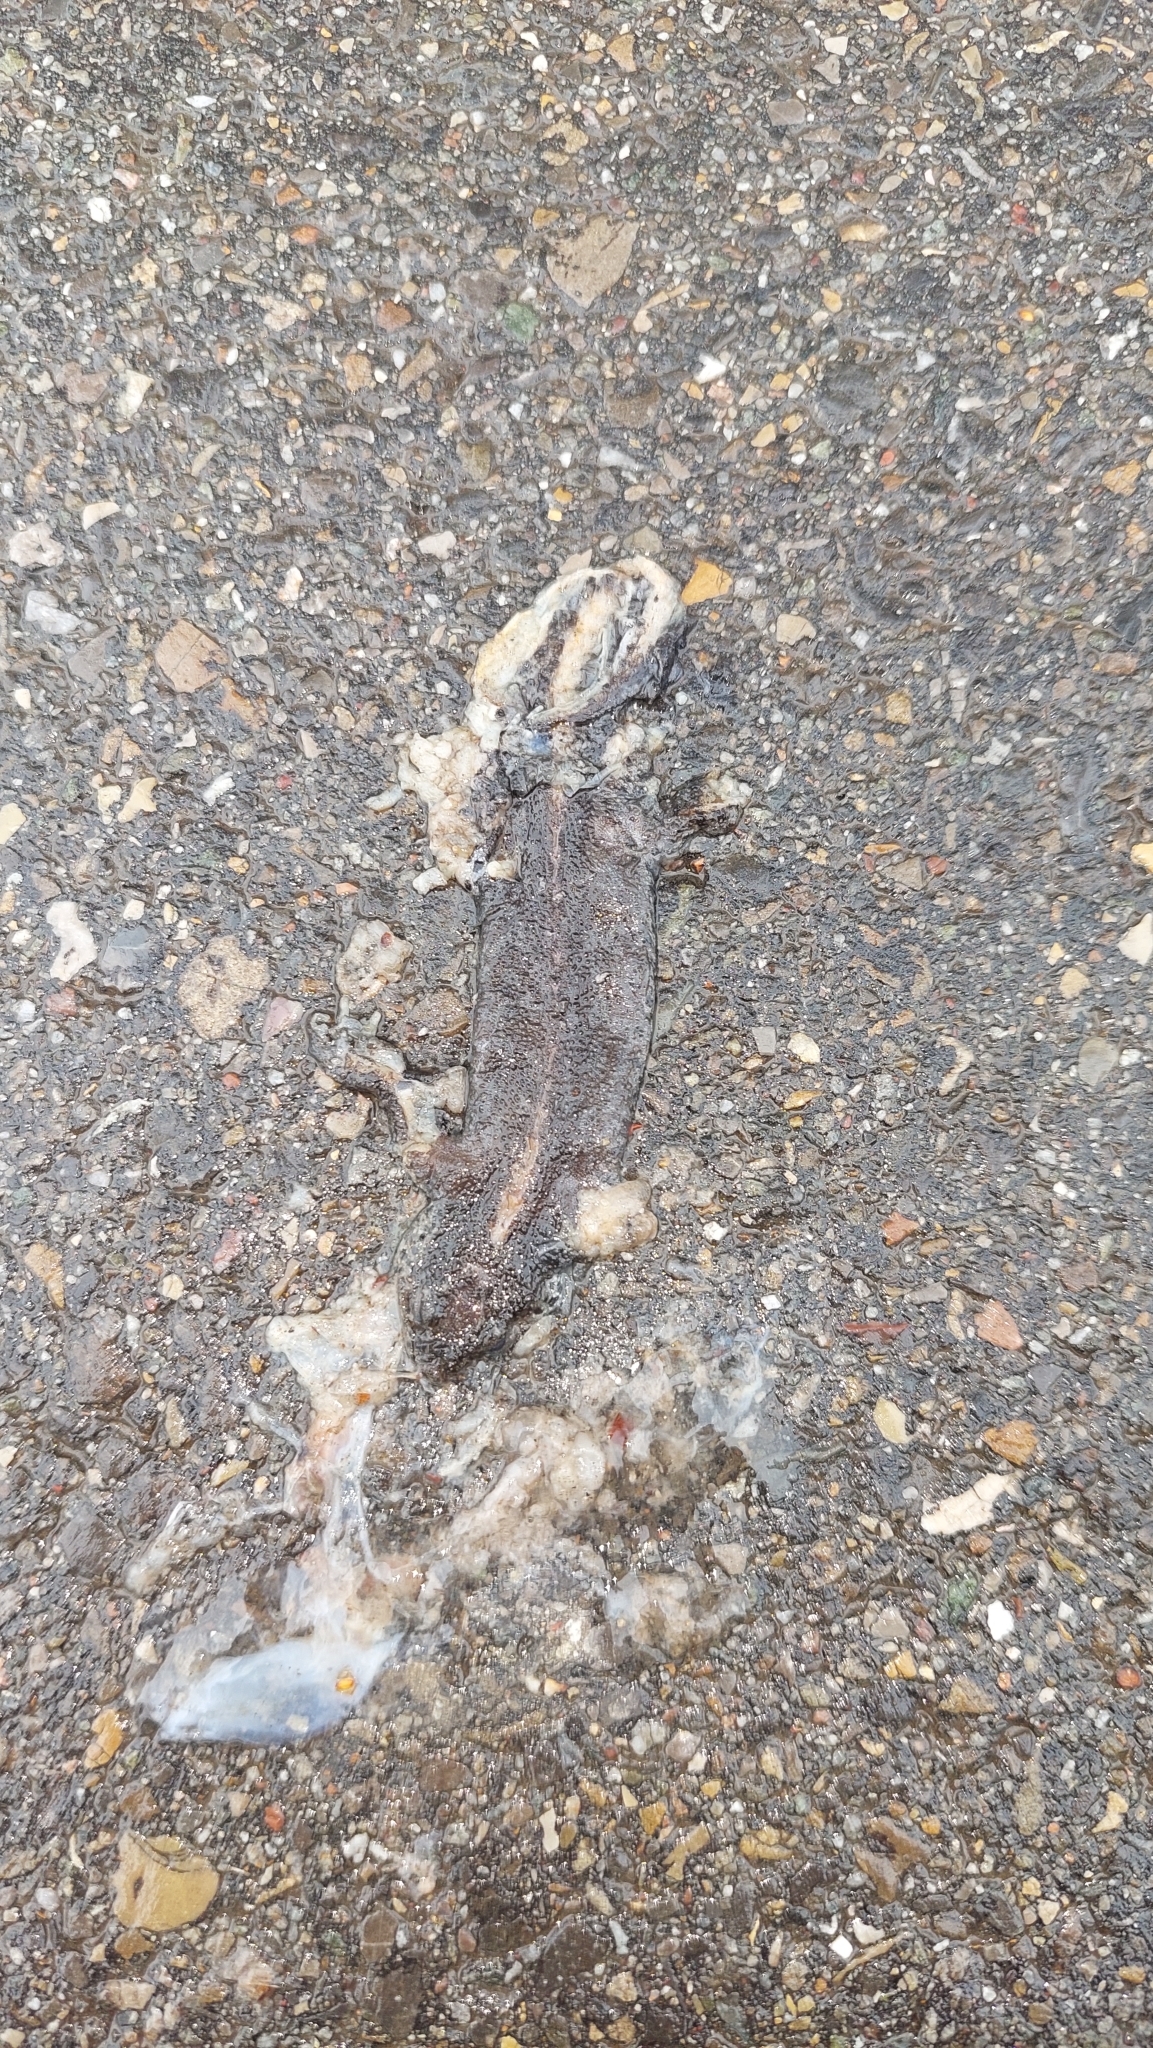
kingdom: Animalia
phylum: Chordata
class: Amphibia
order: Caudata
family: Salamandridae
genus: Ichthyosaura
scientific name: Ichthyosaura alpestris
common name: Alpine newt
